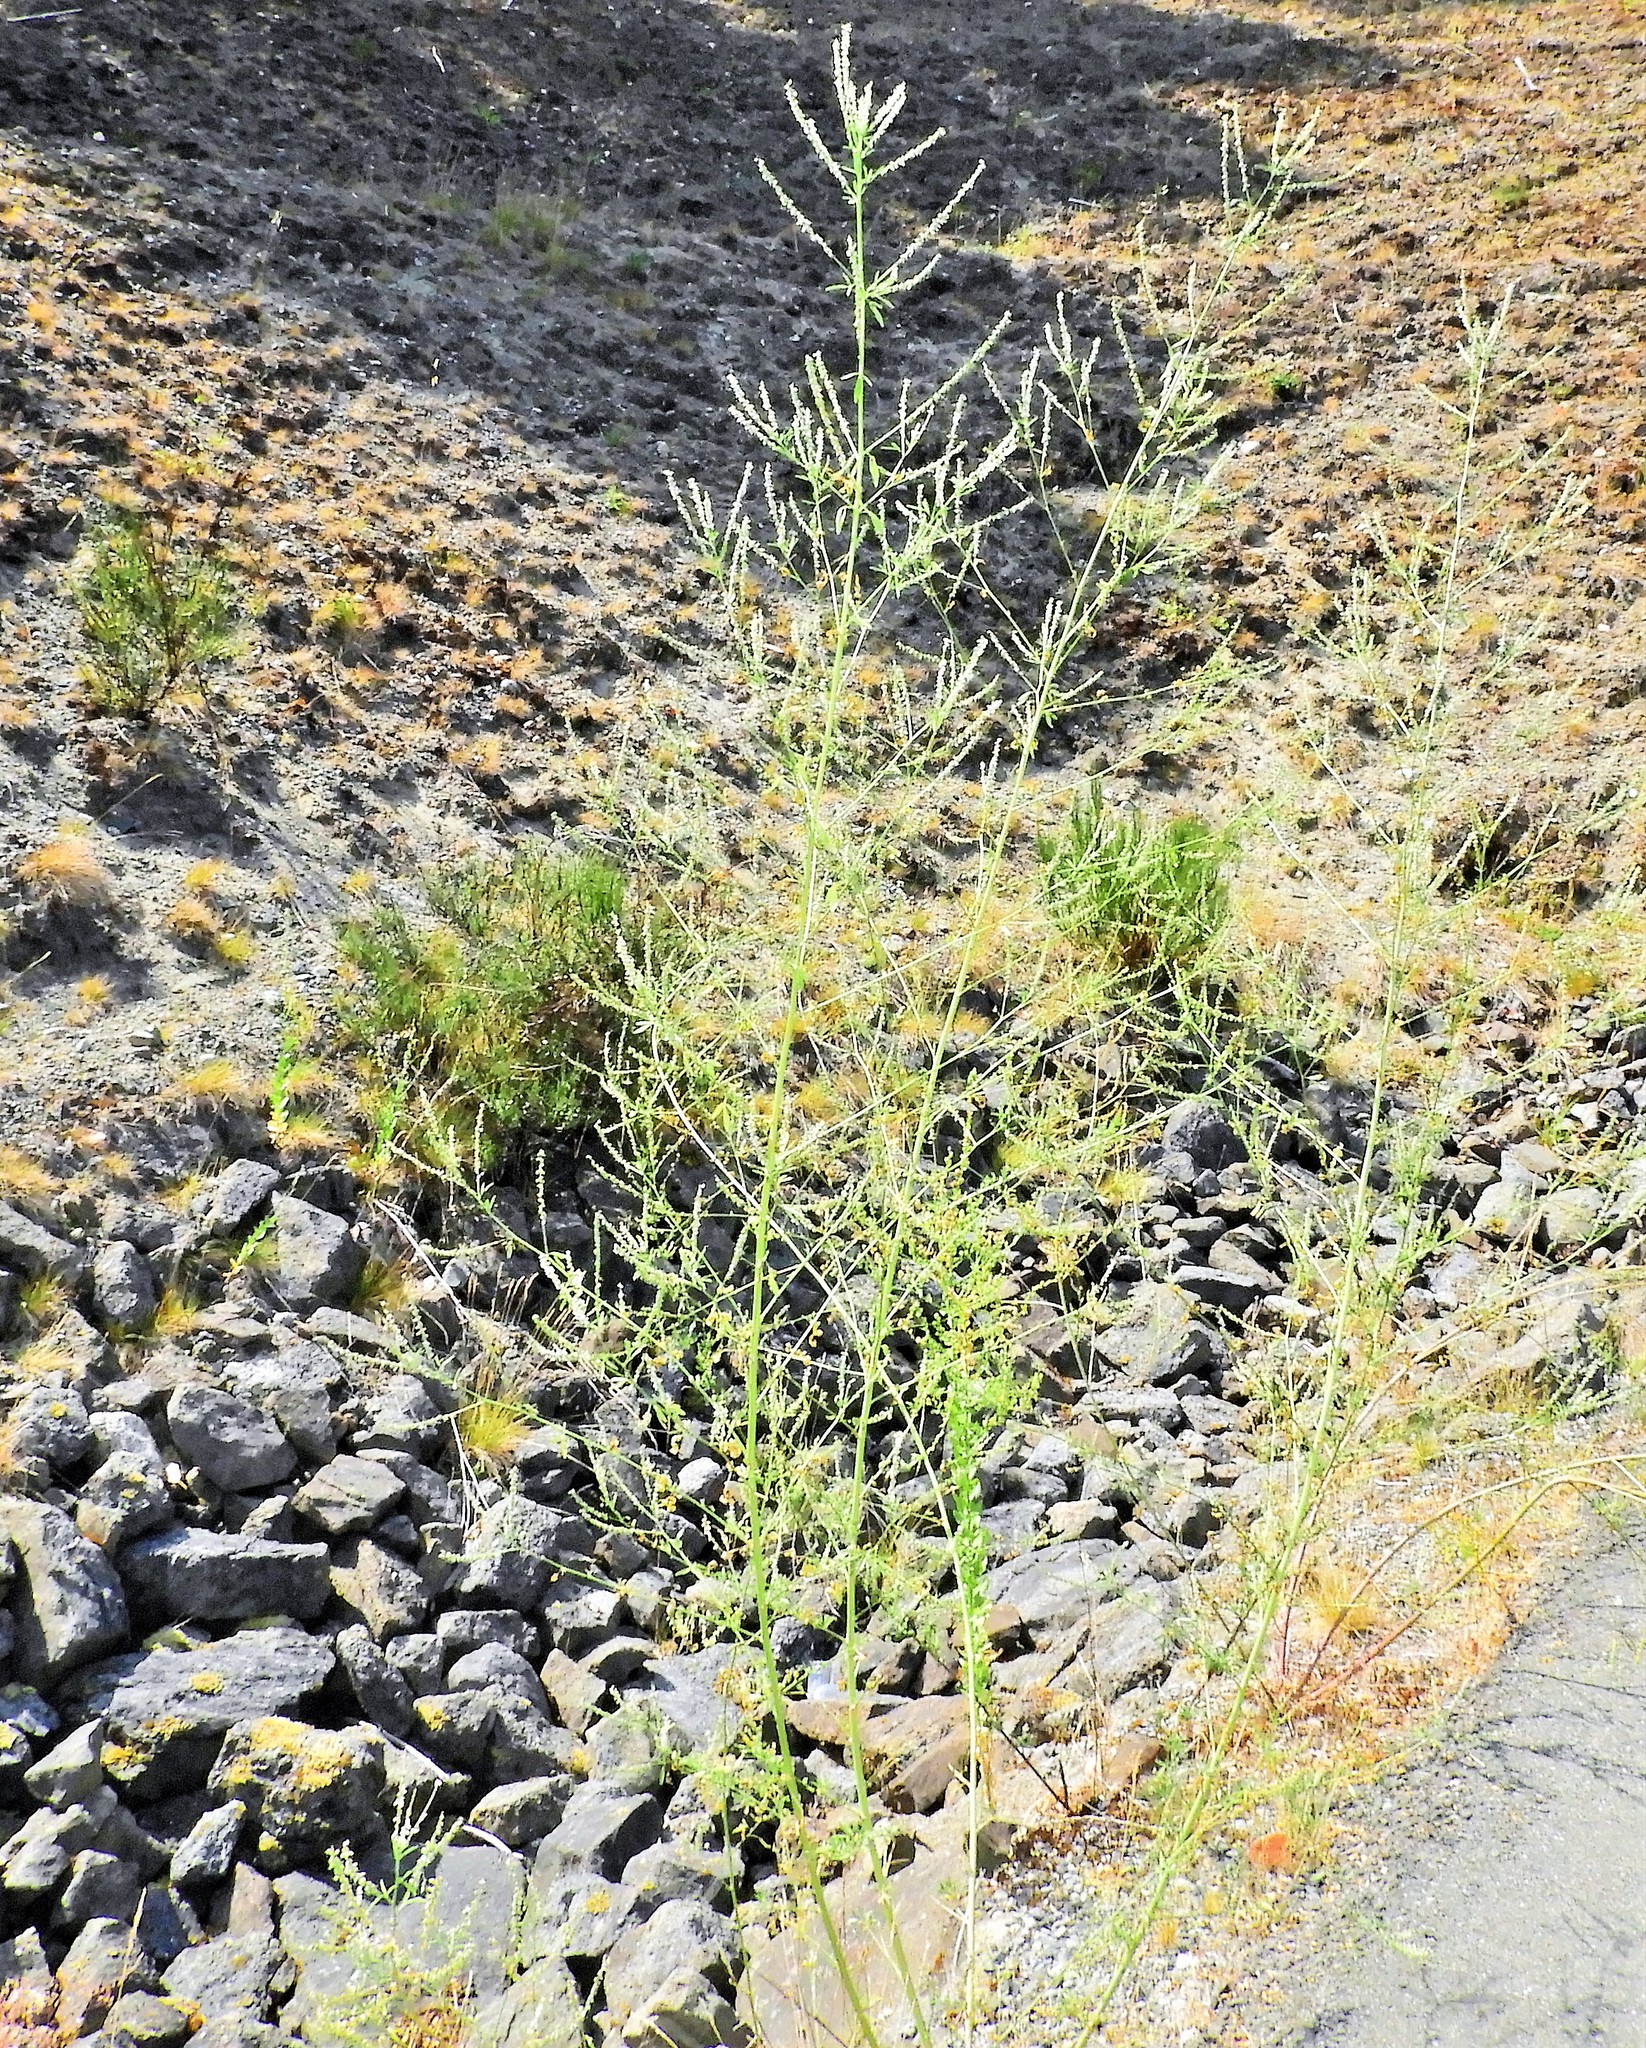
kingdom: Plantae
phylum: Tracheophyta
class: Magnoliopsida
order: Fabales
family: Fabaceae
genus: Melilotus
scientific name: Melilotus albus
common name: White melilot
